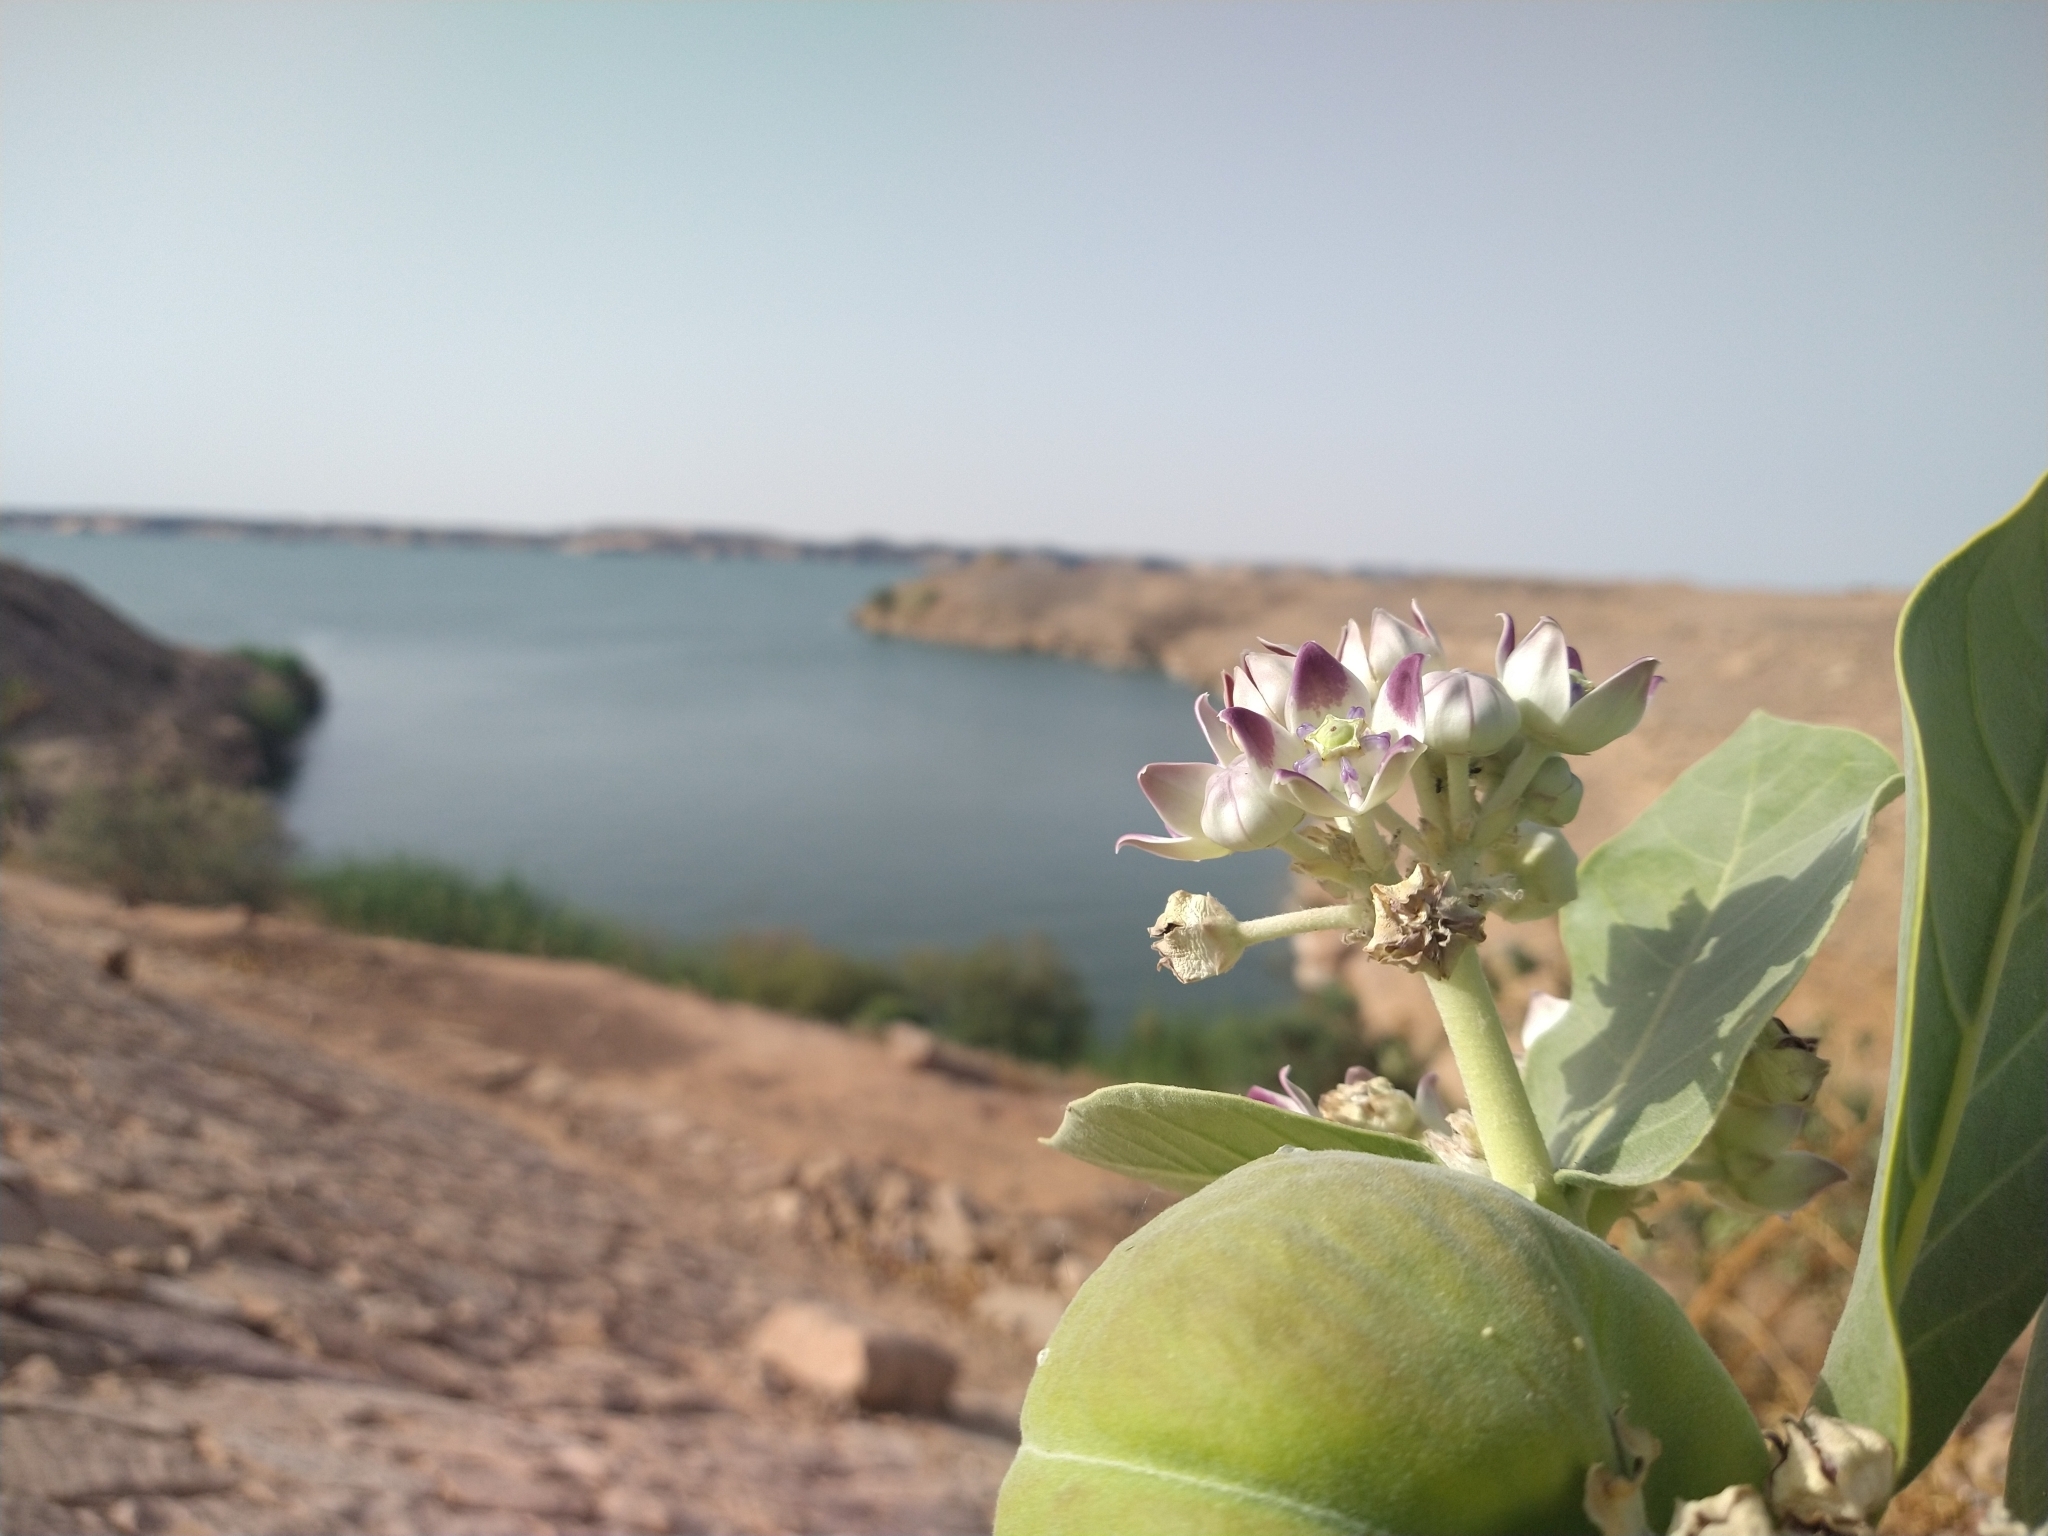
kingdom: Plantae
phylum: Tracheophyta
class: Magnoliopsida
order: Gentianales
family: Apocynaceae
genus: Calotropis
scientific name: Calotropis procera
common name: Roostertree
